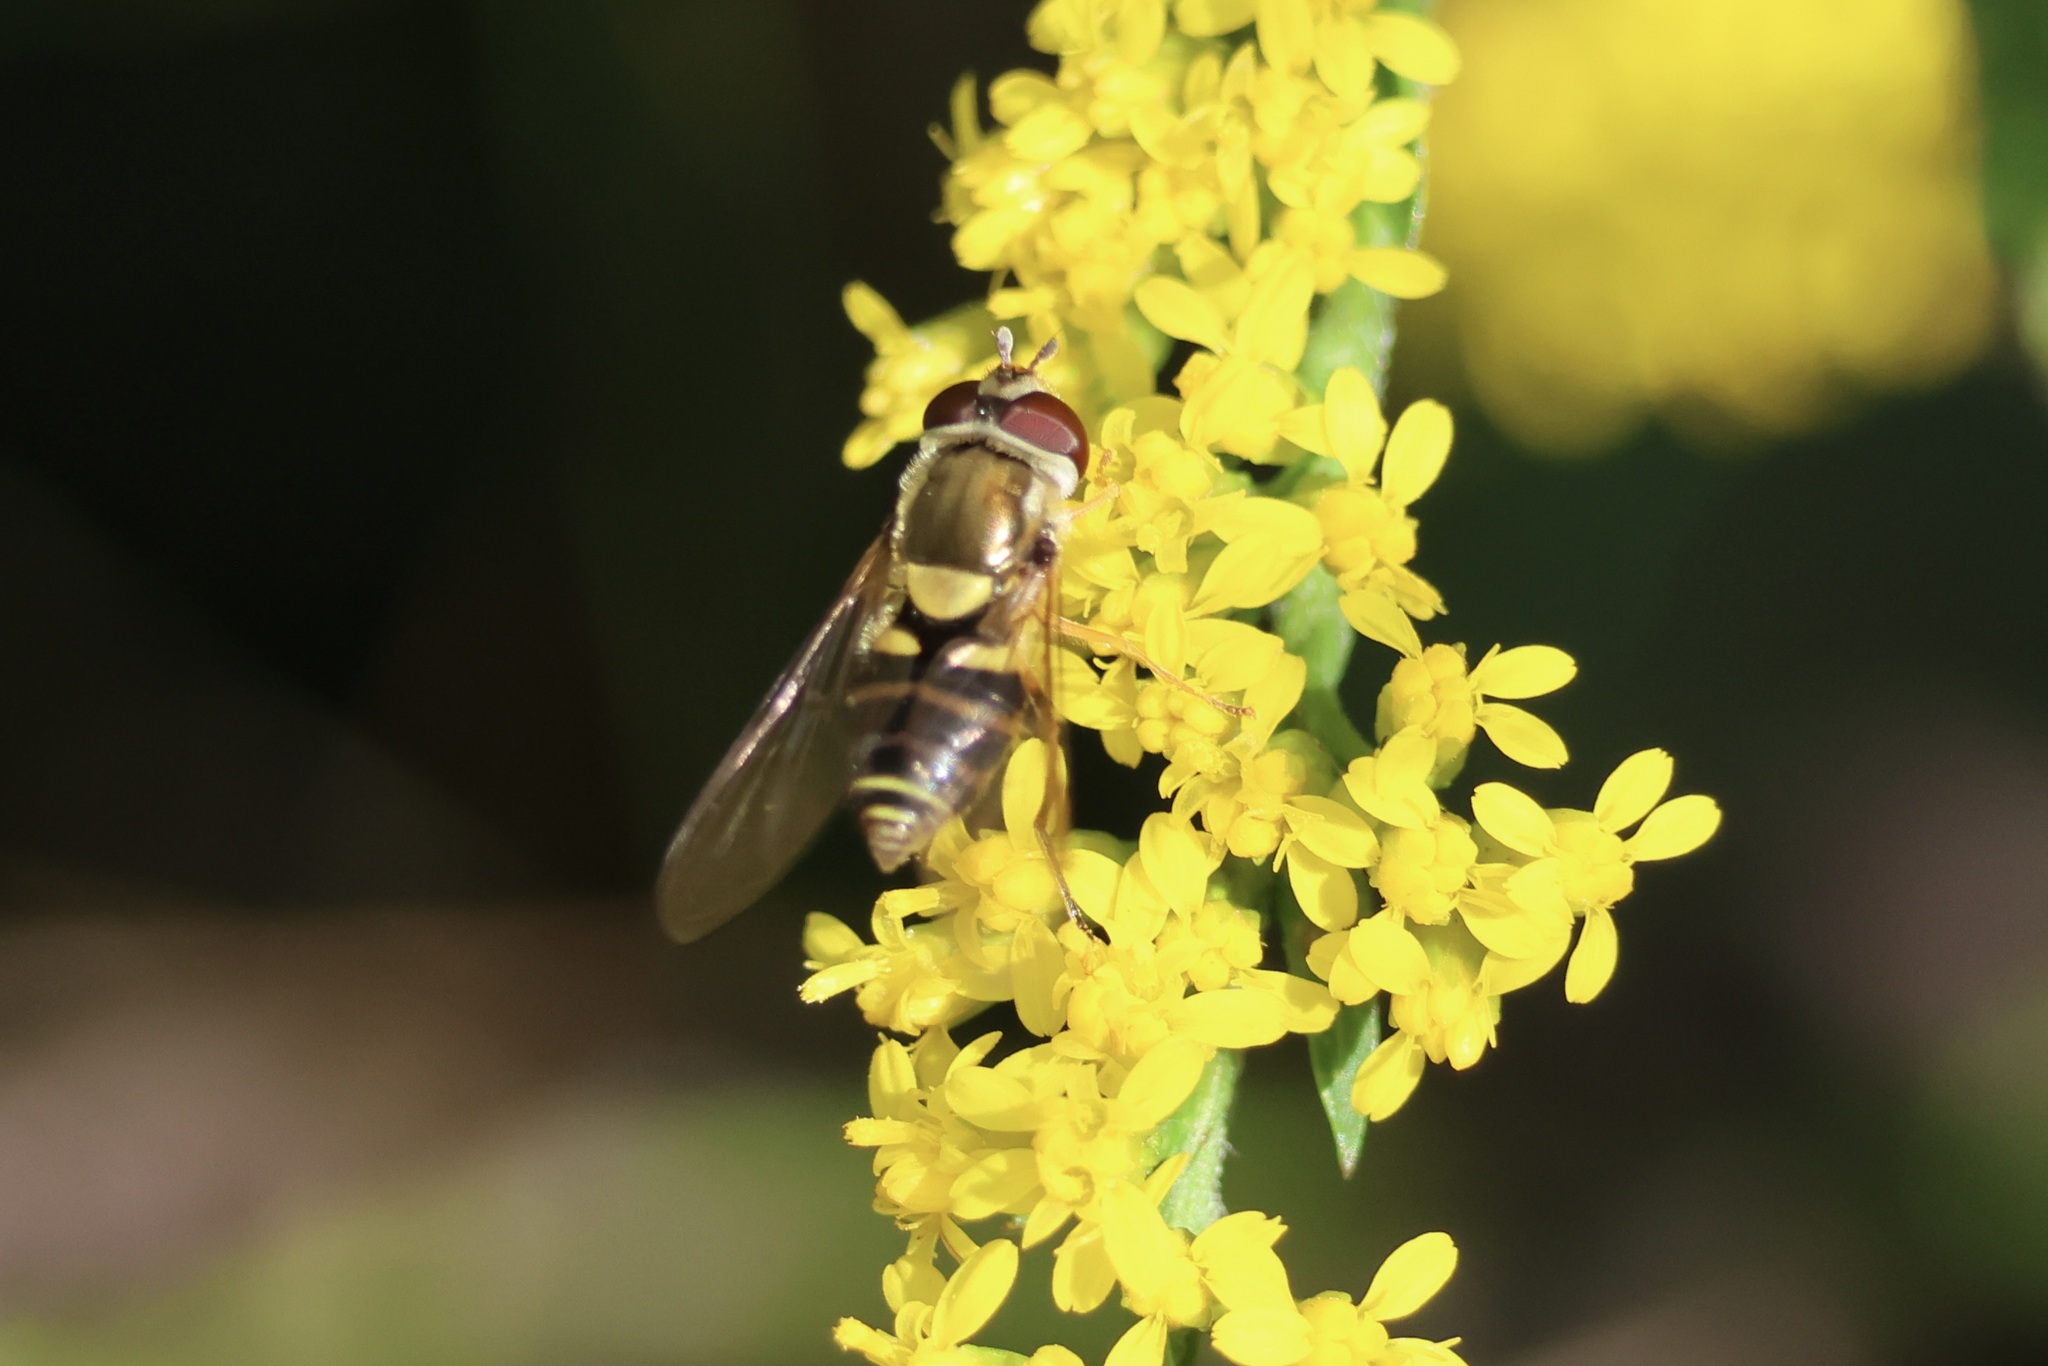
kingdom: Animalia
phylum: Arthropoda
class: Insecta
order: Diptera
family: Syrphidae
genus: Syrphus
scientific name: Syrphus rectus
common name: Yellow-legged flower fly
